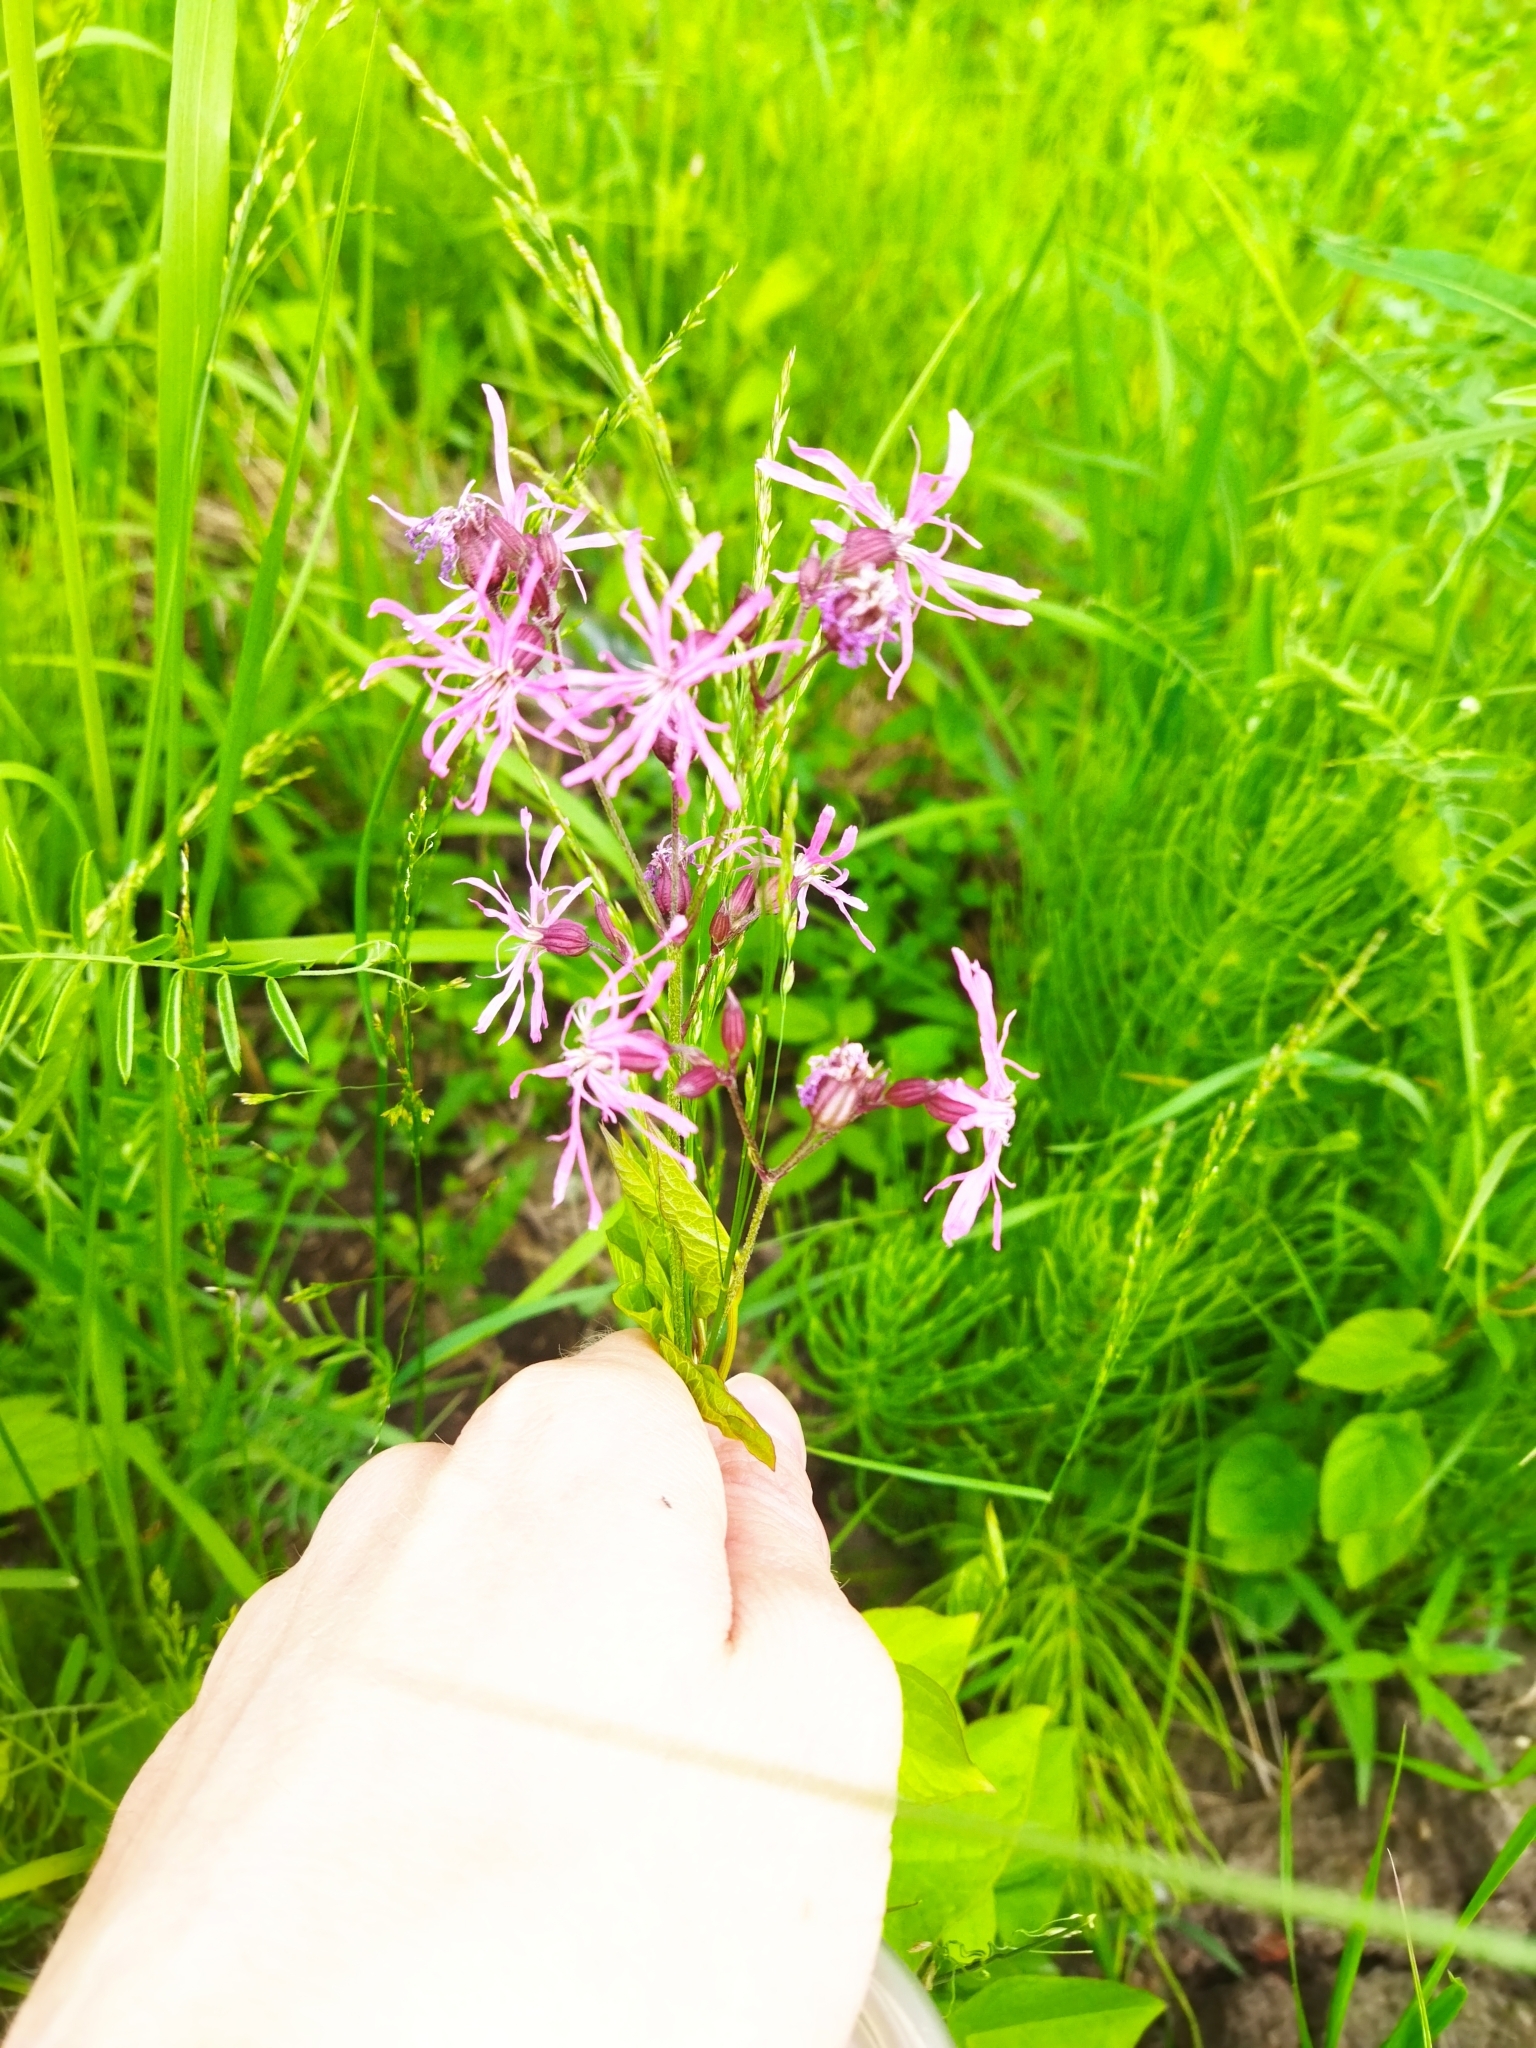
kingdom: Plantae
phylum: Tracheophyta
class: Magnoliopsida
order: Caryophyllales
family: Caryophyllaceae
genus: Silene
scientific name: Silene flos-cuculi
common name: Ragged-robin
